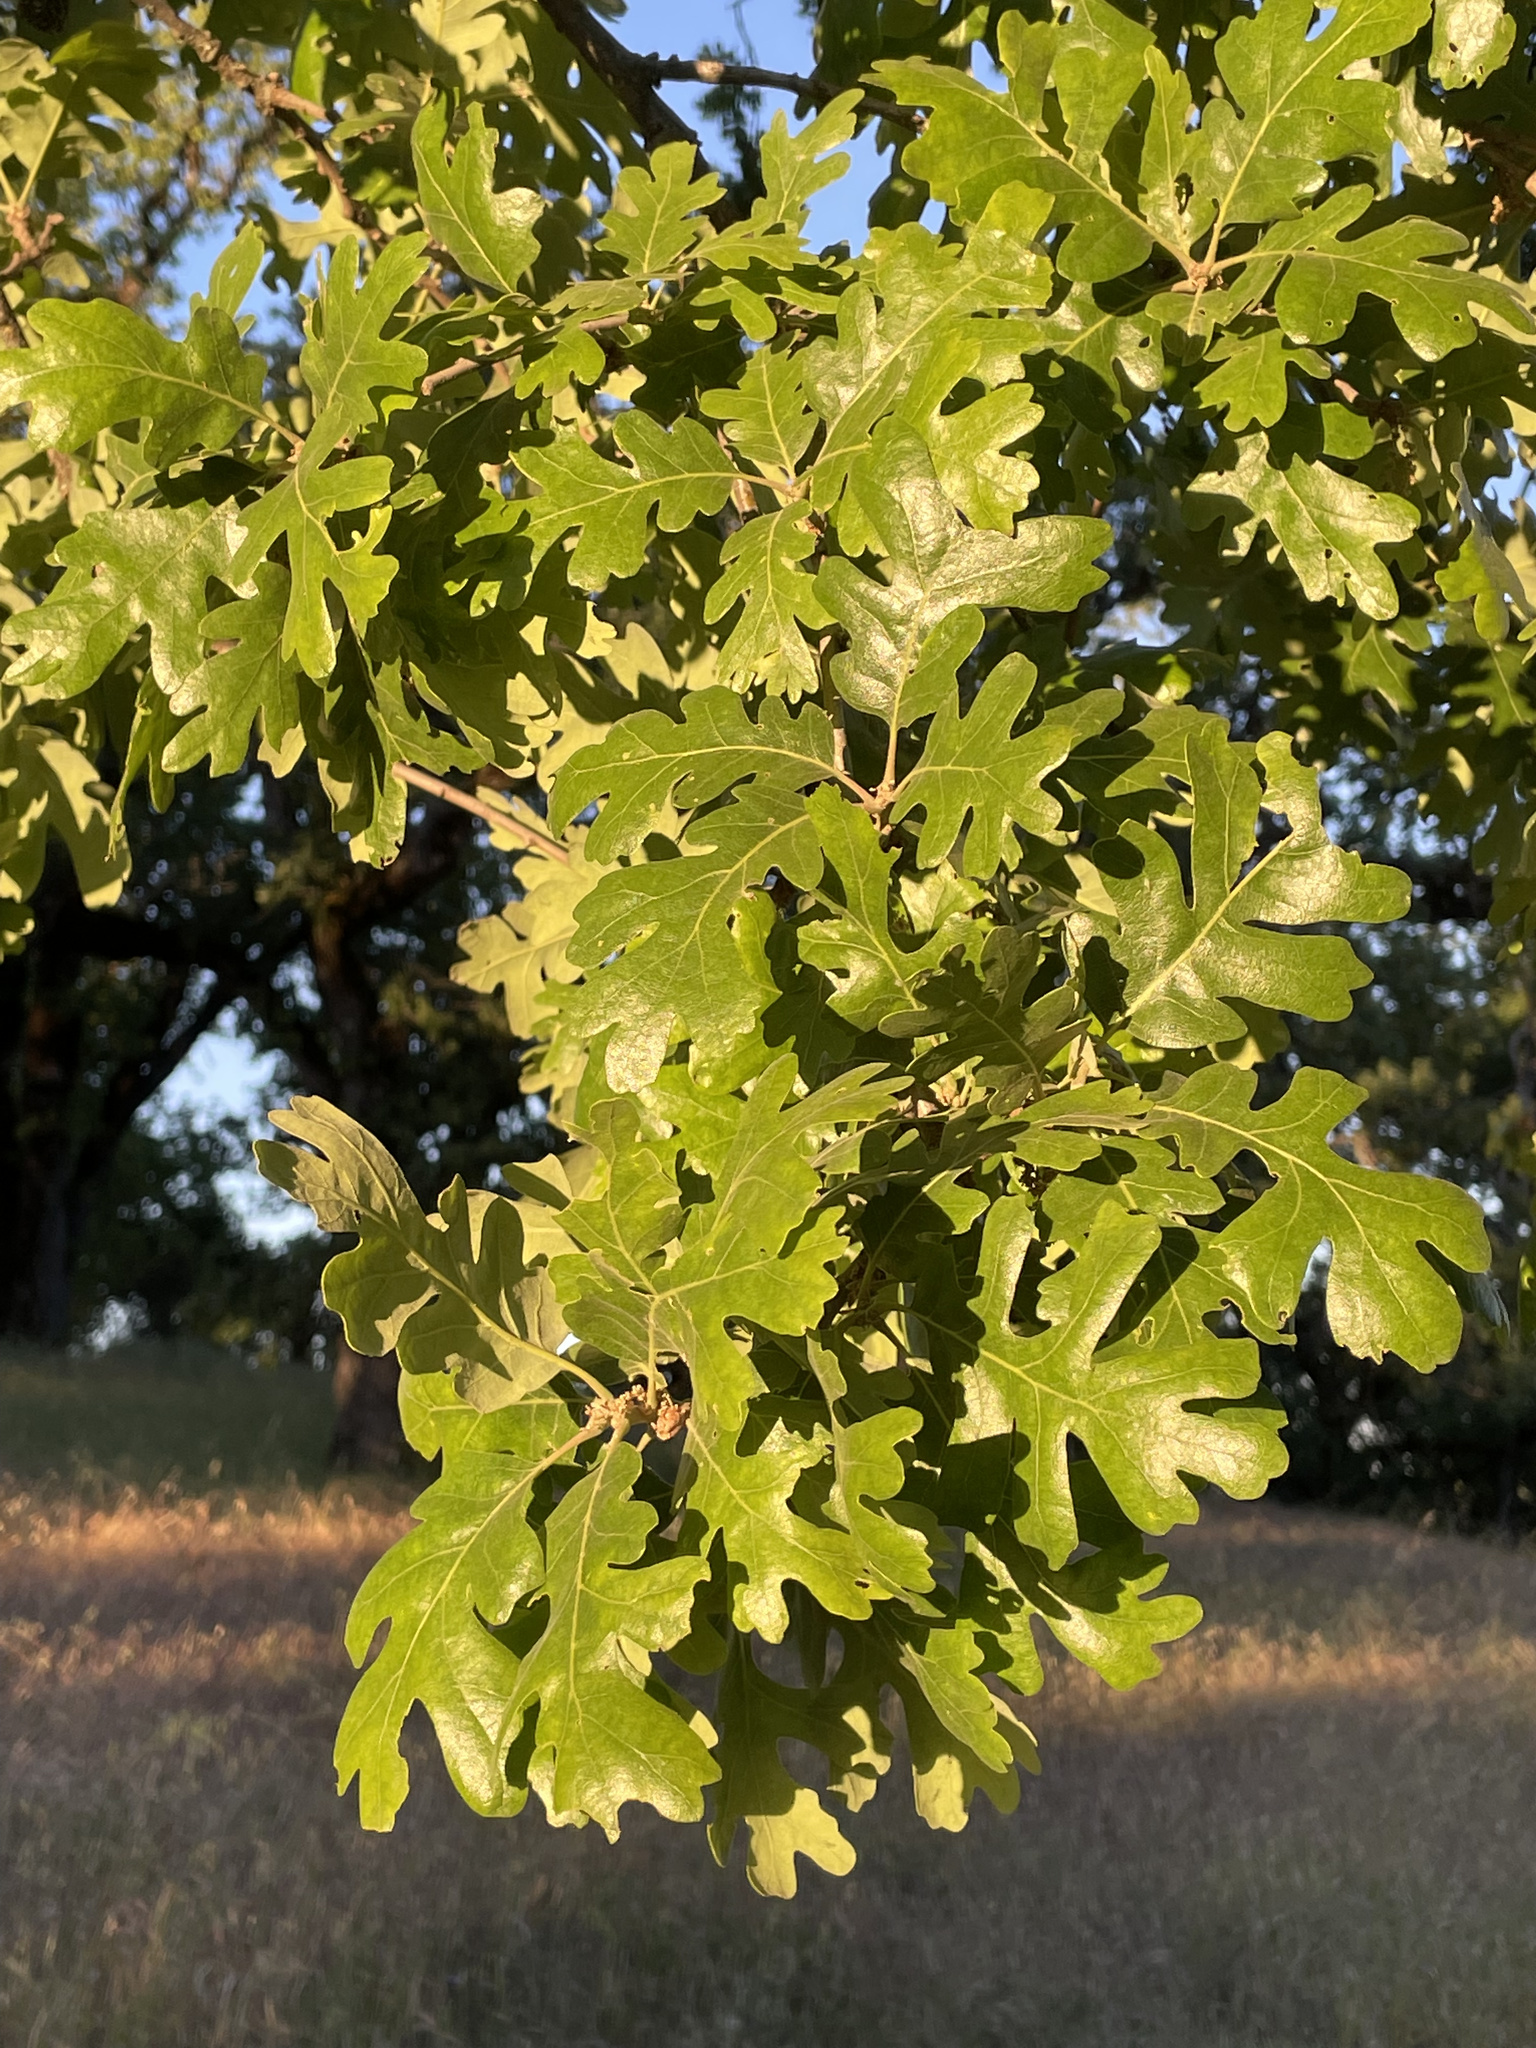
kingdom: Plantae
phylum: Tracheophyta
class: Magnoliopsida
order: Fagales
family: Fagaceae
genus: Quercus
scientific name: Quercus lobata
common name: Valley oak
